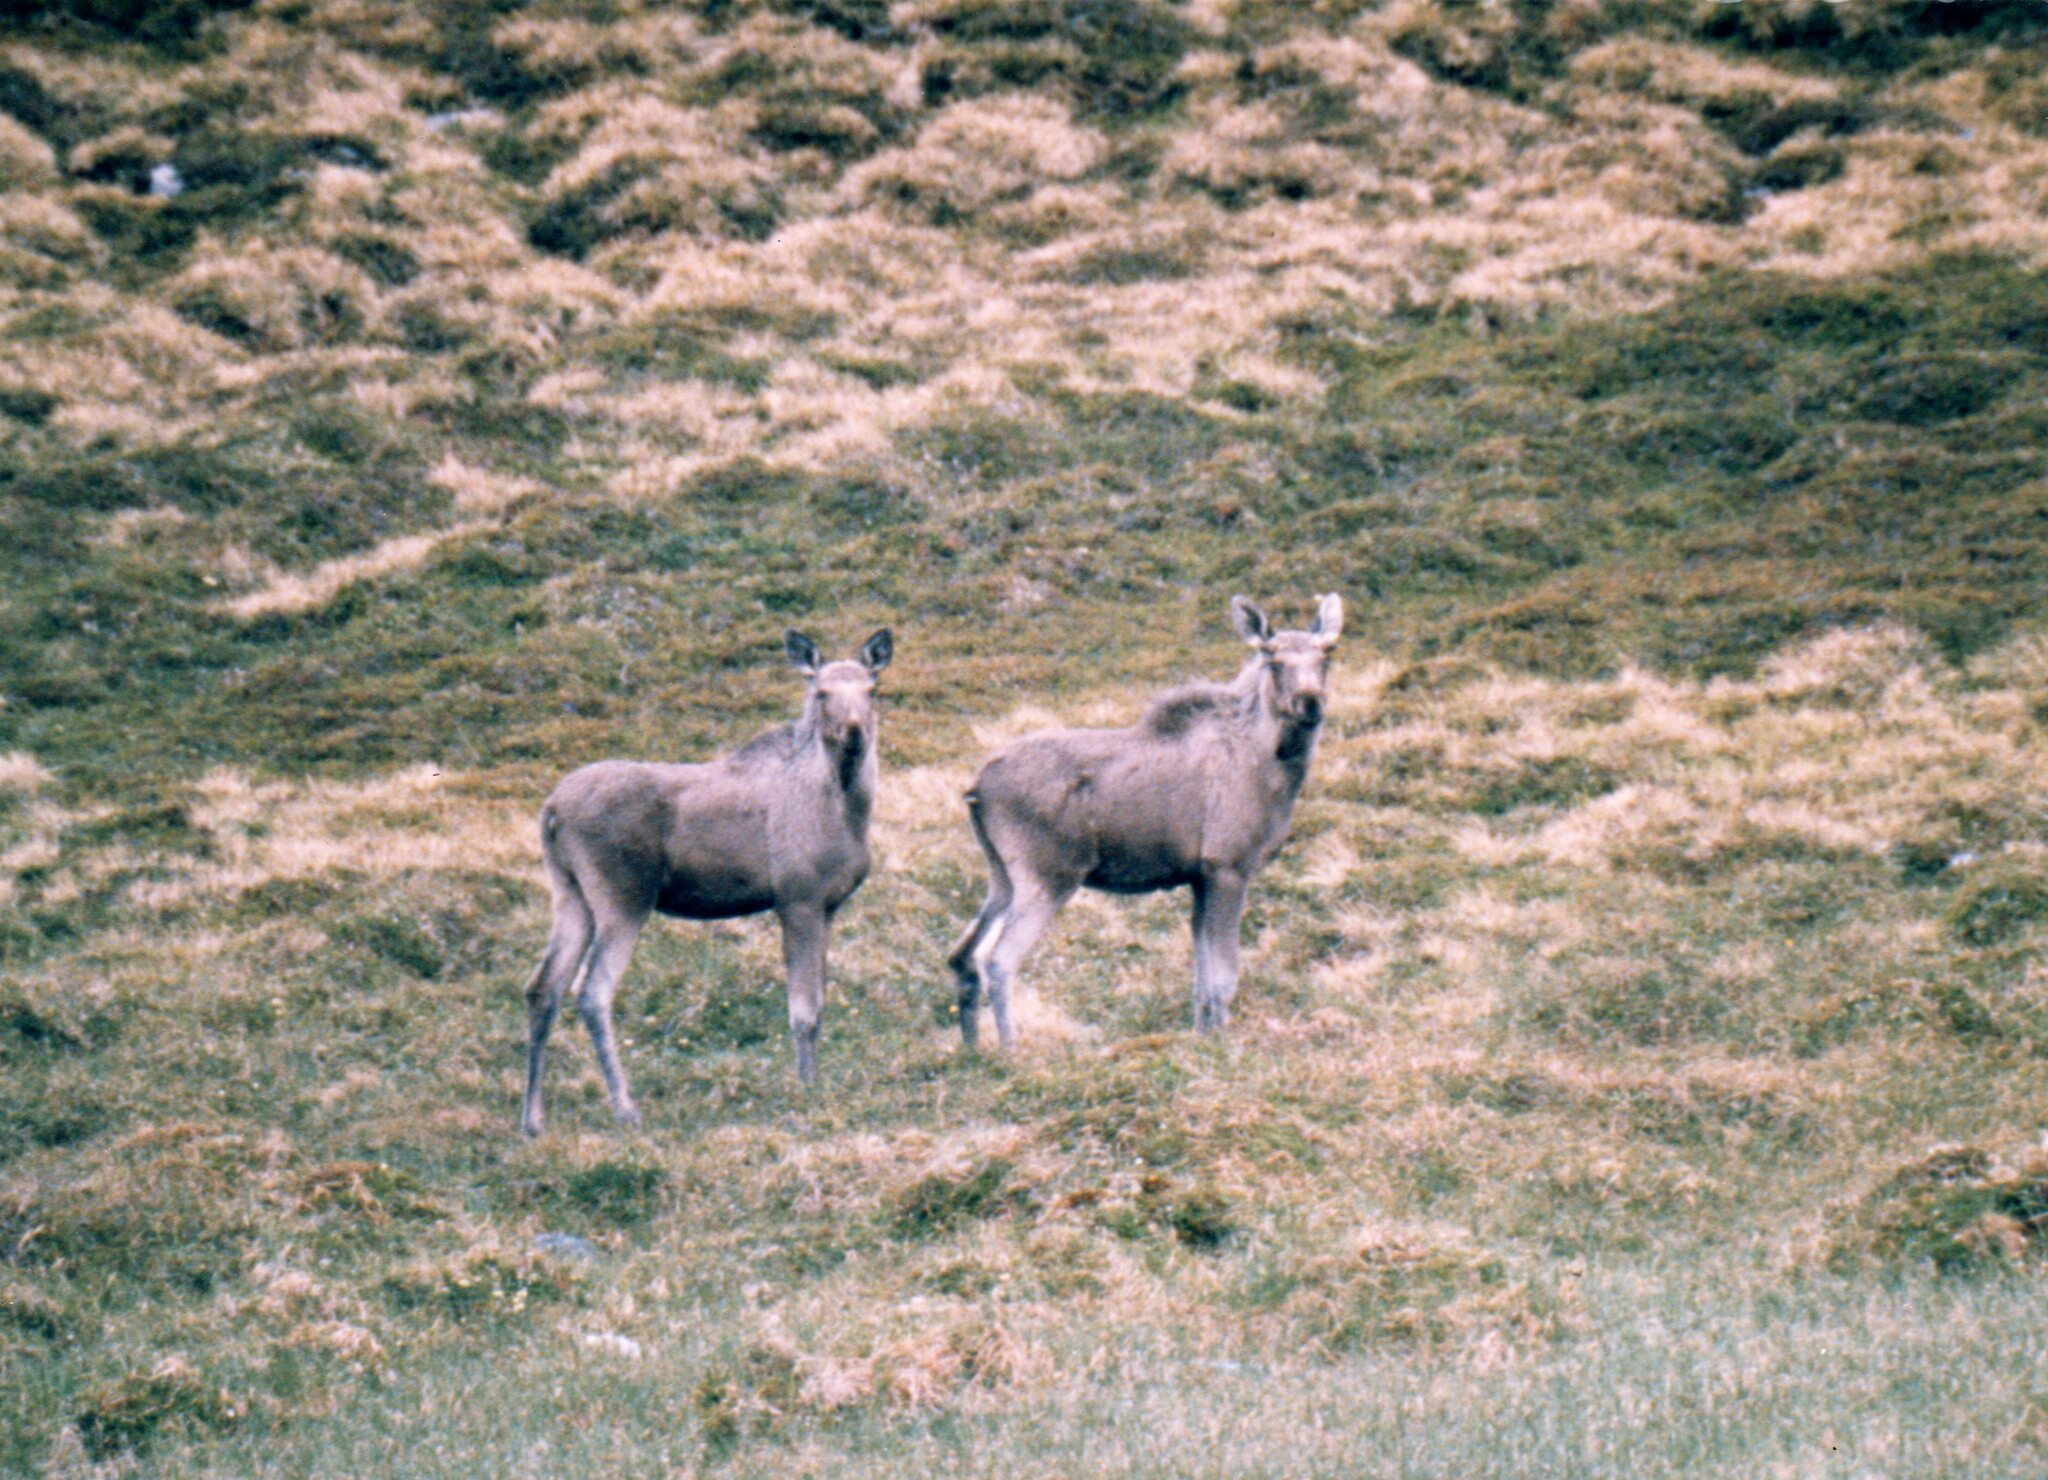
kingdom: Animalia
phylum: Chordata
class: Mammalia
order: Artiodactyla
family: Cervidae
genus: Alces
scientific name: Alces alces
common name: Moose
